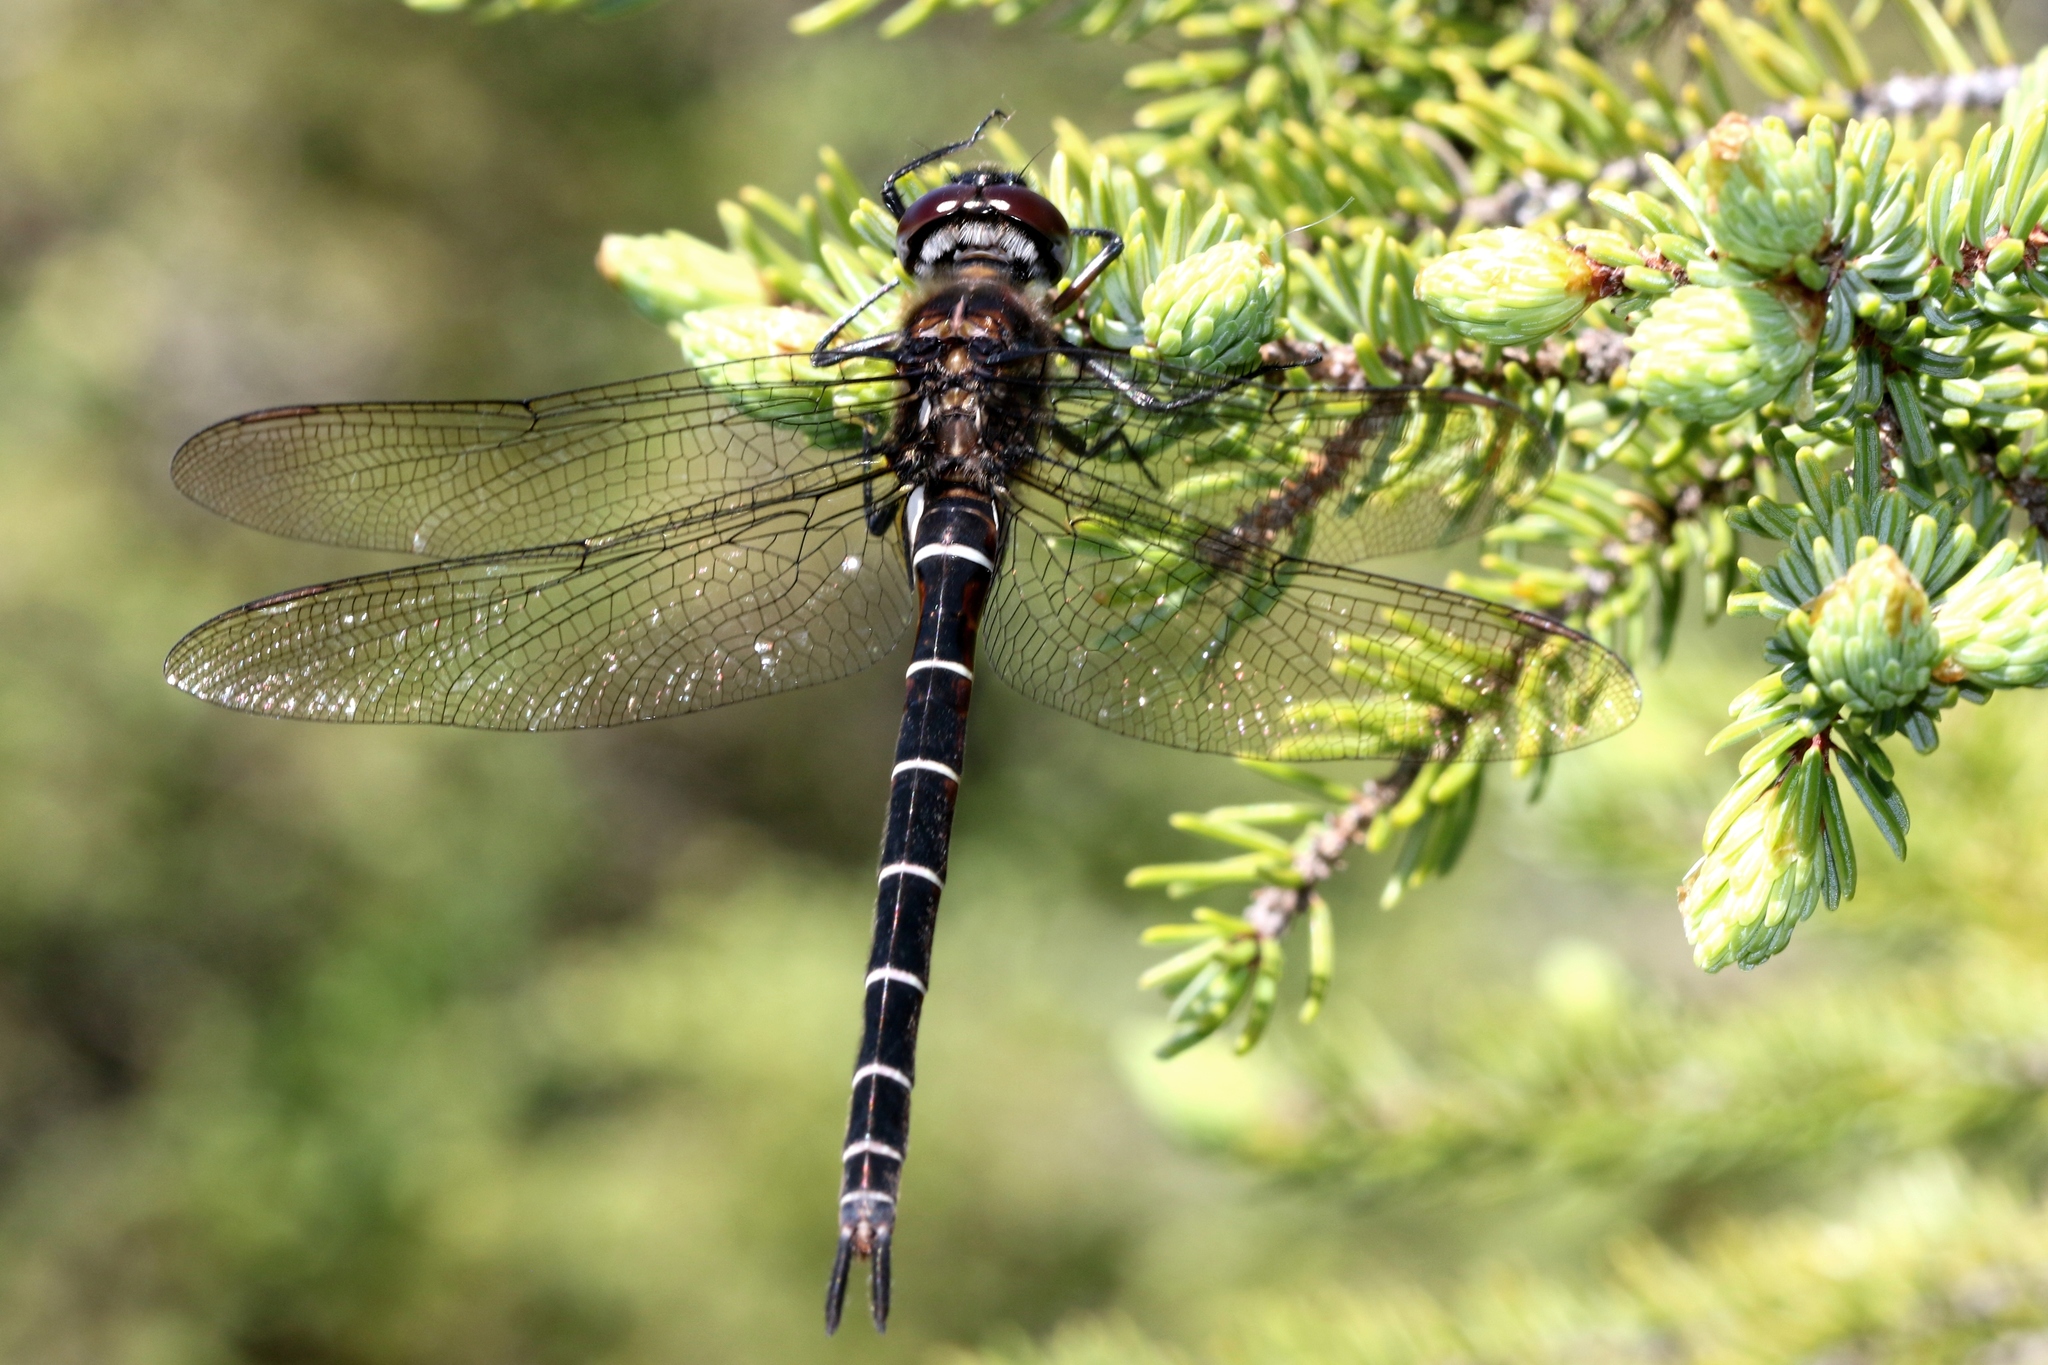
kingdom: Animalia
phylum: Arthropoda
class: Insecta
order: Odonata
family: Corduliidae
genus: Somatochlora
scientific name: Somatochlora cingulata
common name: Lake emerald
